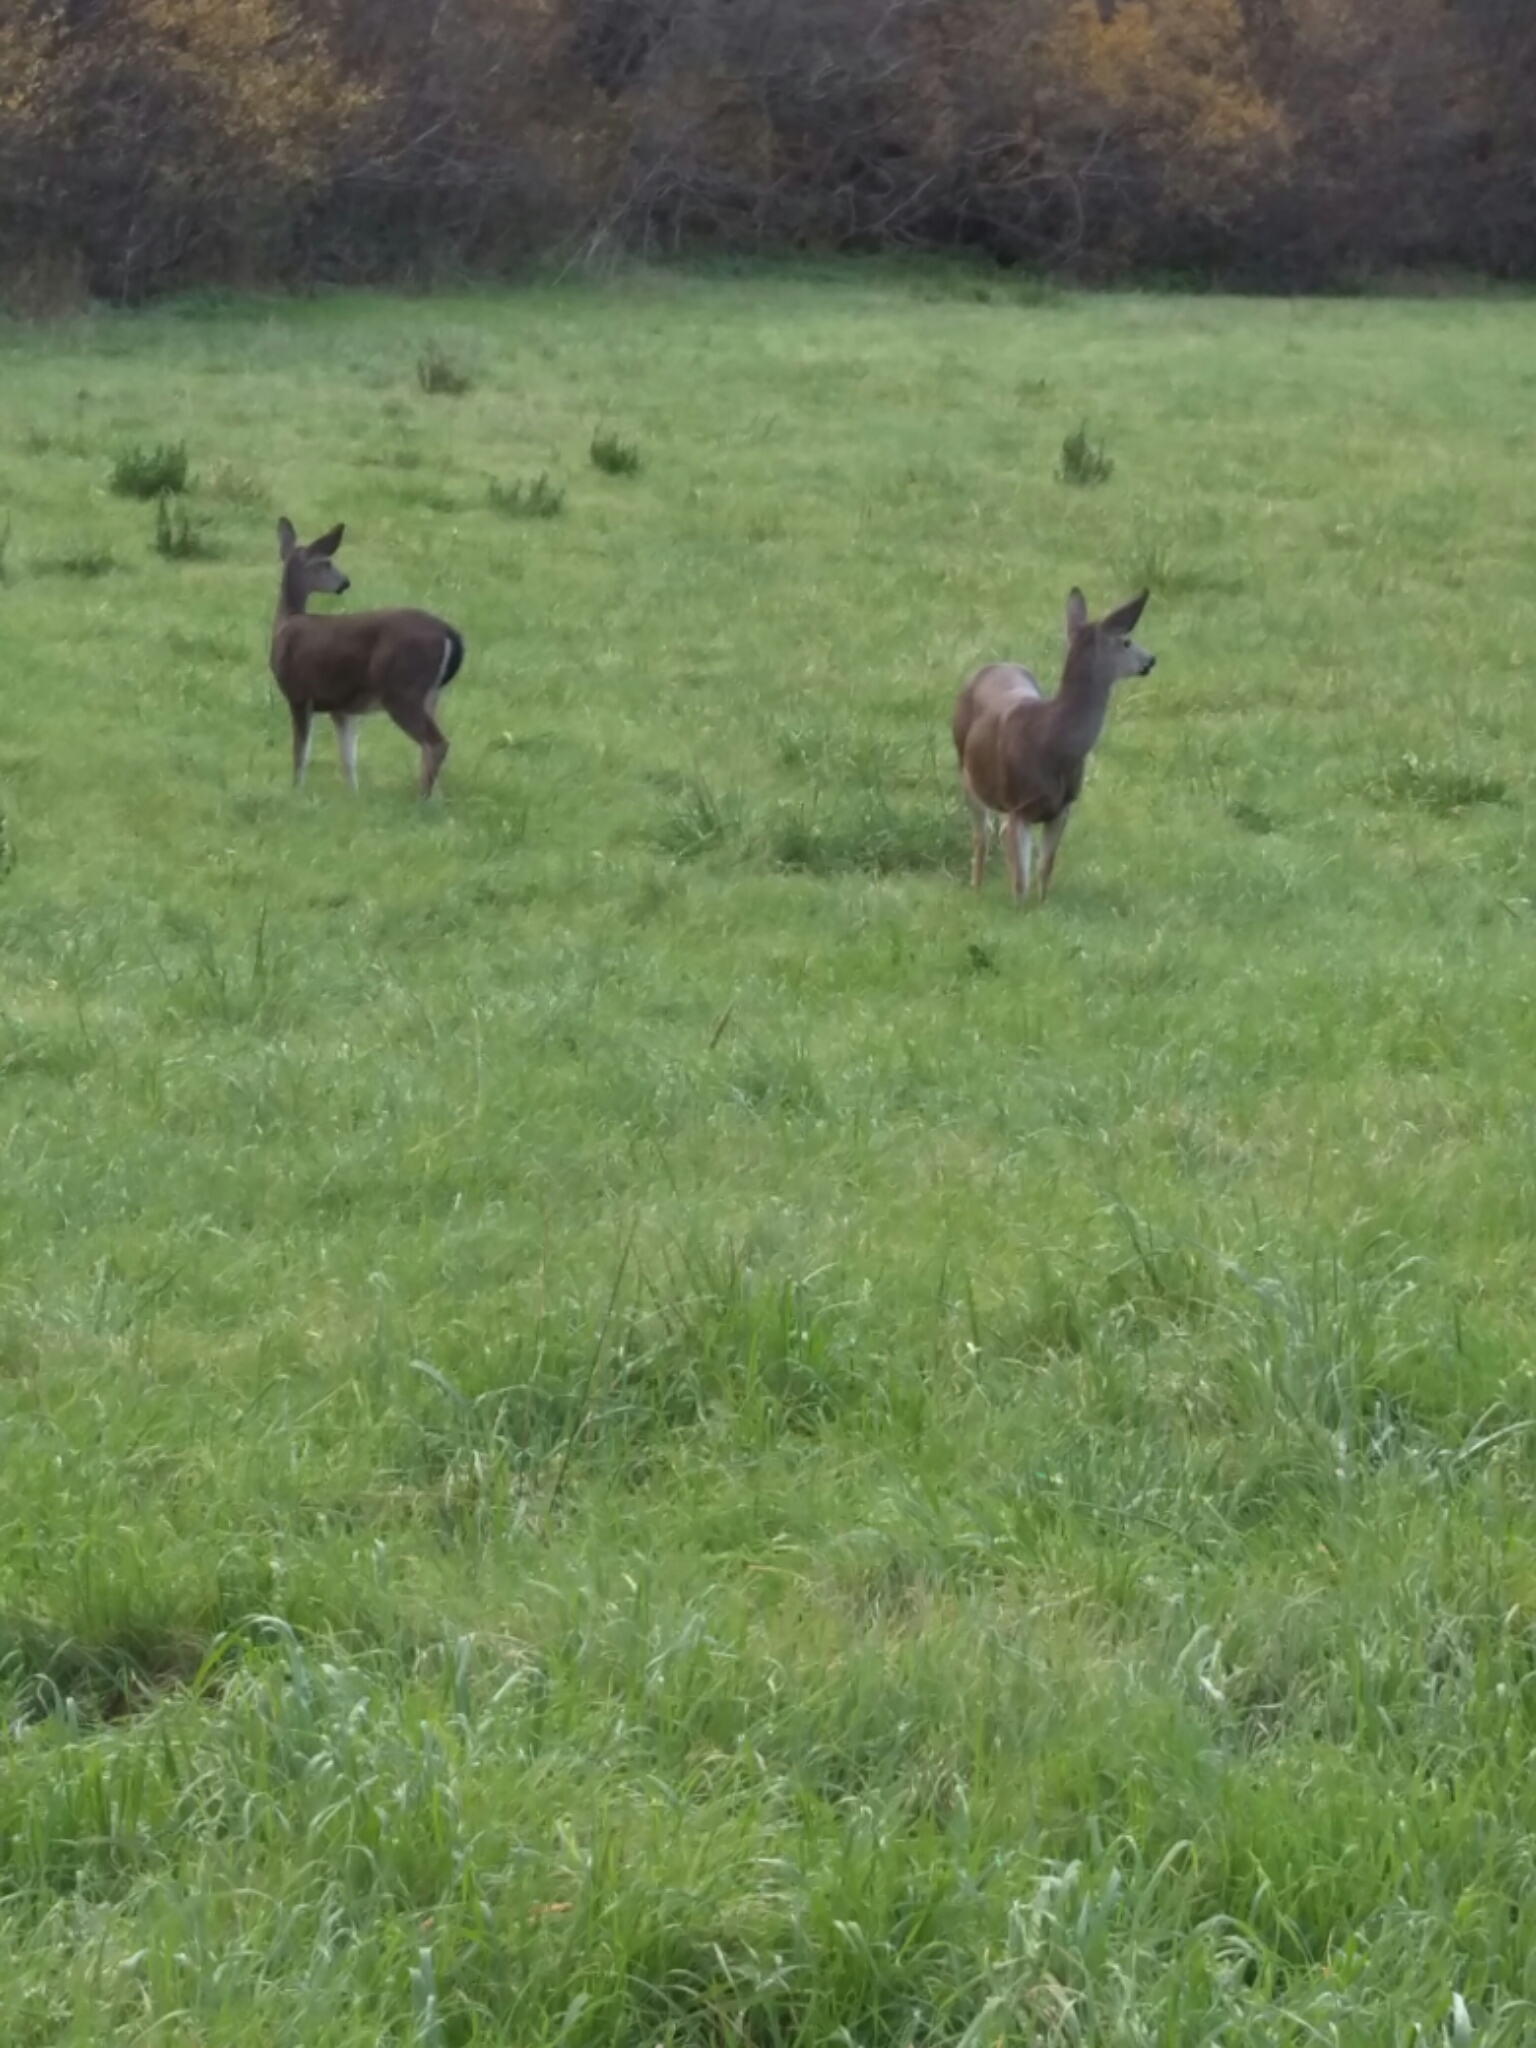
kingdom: Animalia
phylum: Chordata
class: Mammalia
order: Artiodactyla
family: Cervidae
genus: Odocoileus
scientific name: Odocoileus hemionus
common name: Mule deer
